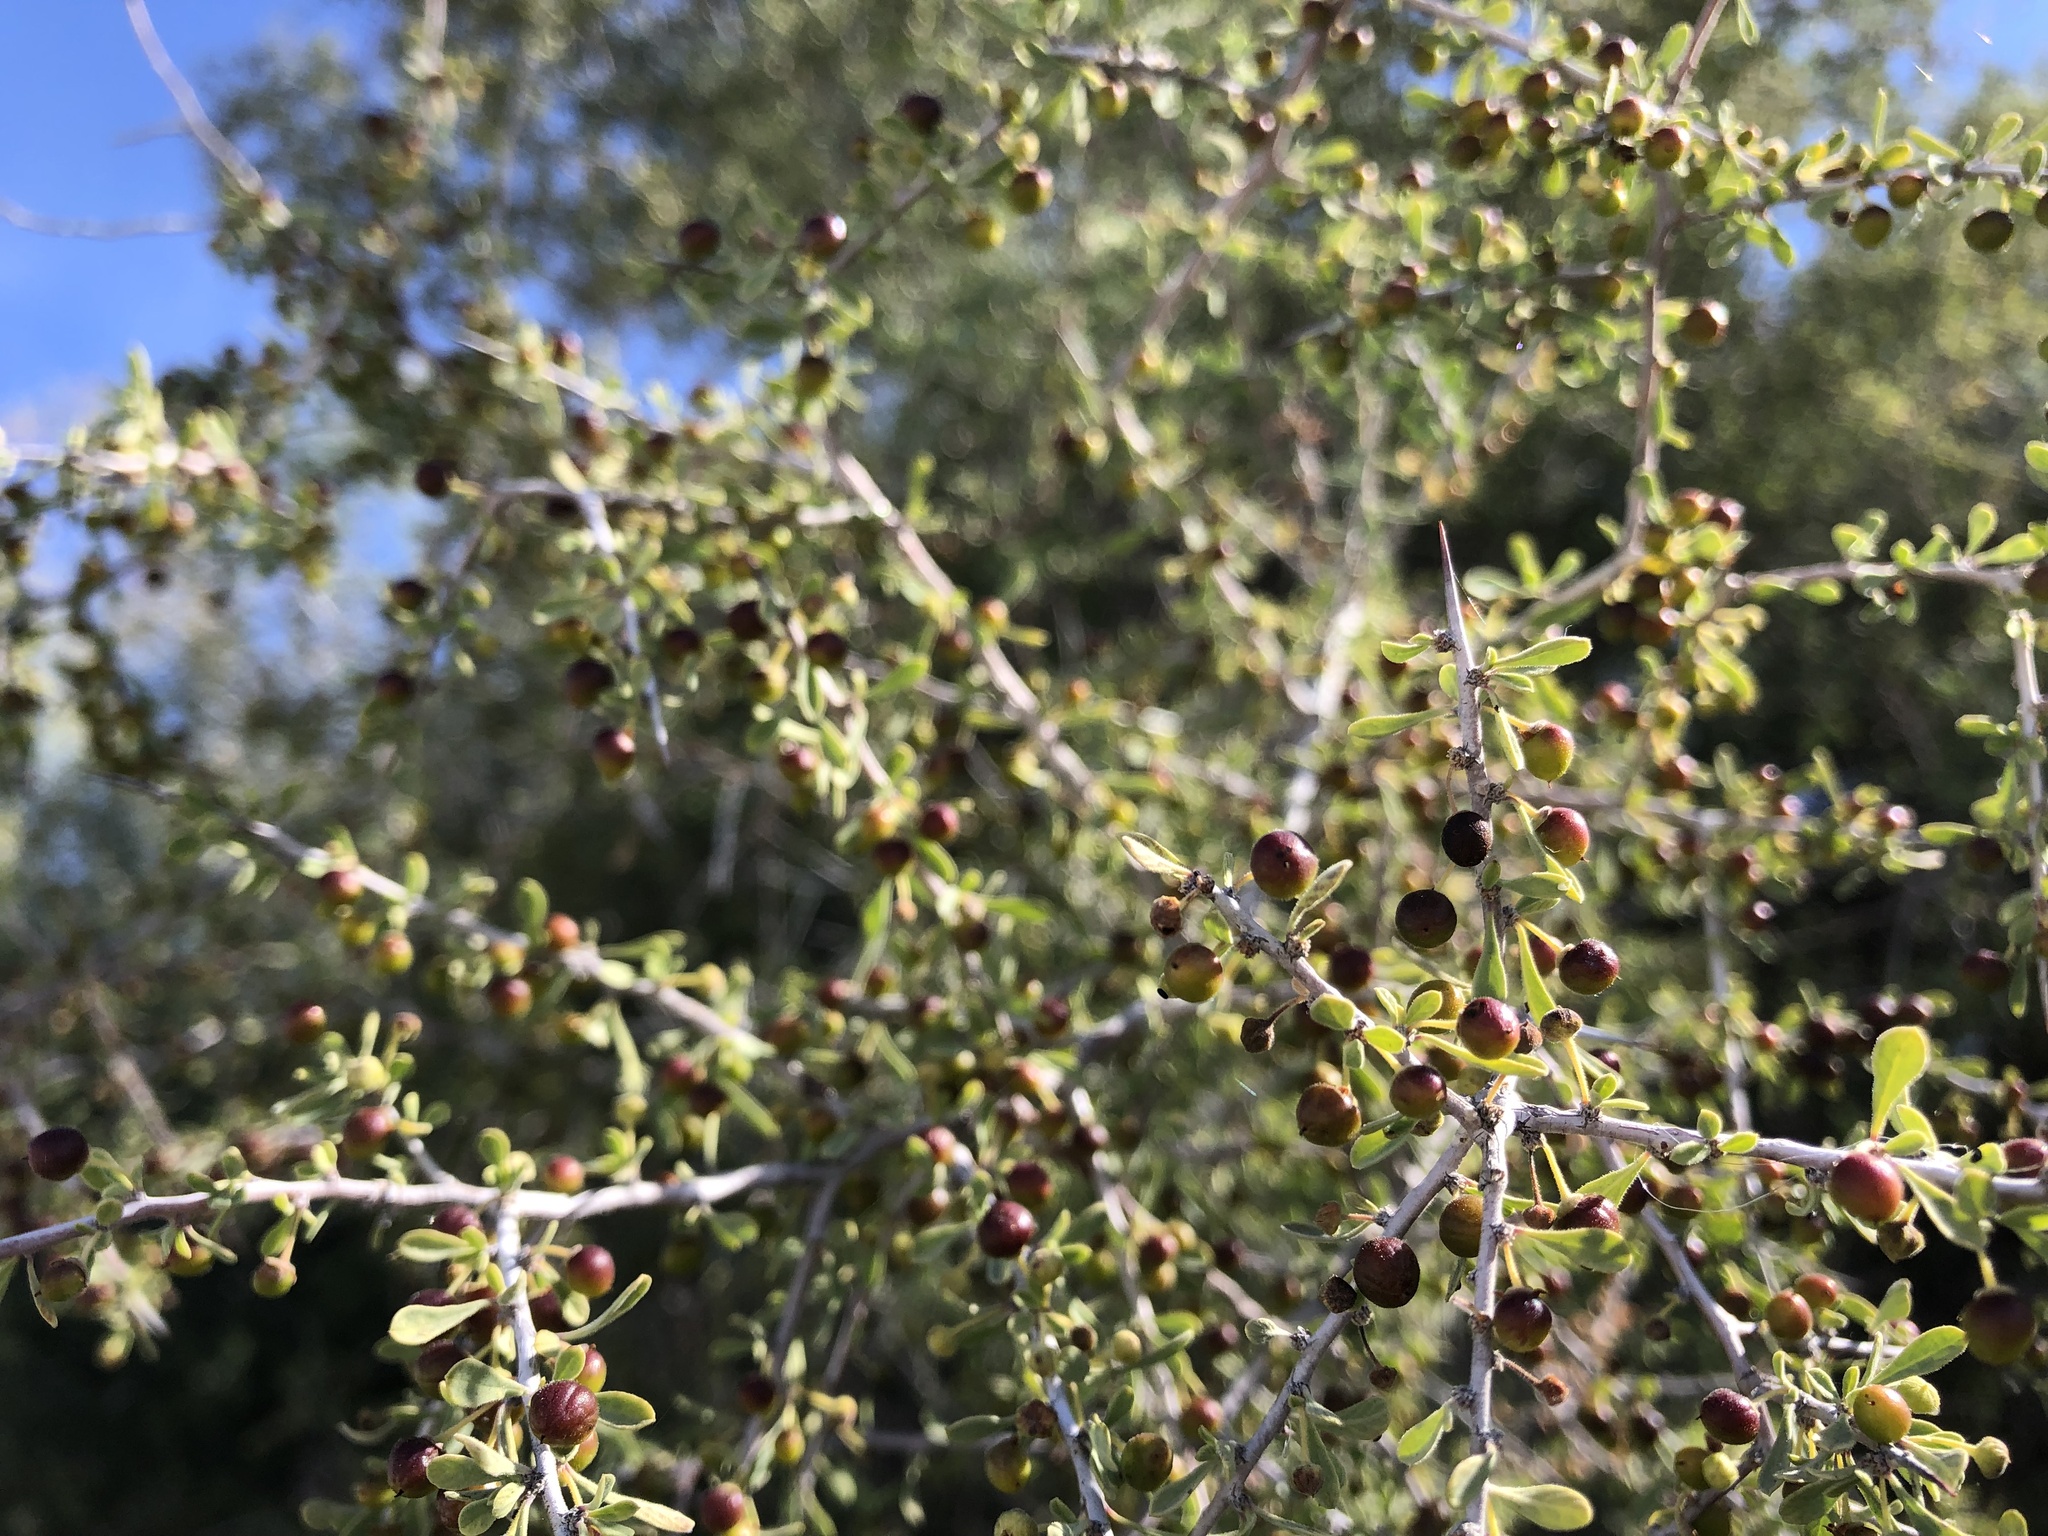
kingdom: Plantae
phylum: Tracheophyta
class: Magnoliopsida
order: Rosales
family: Rhamnaceae
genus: Condalia
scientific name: Condalia globosa
